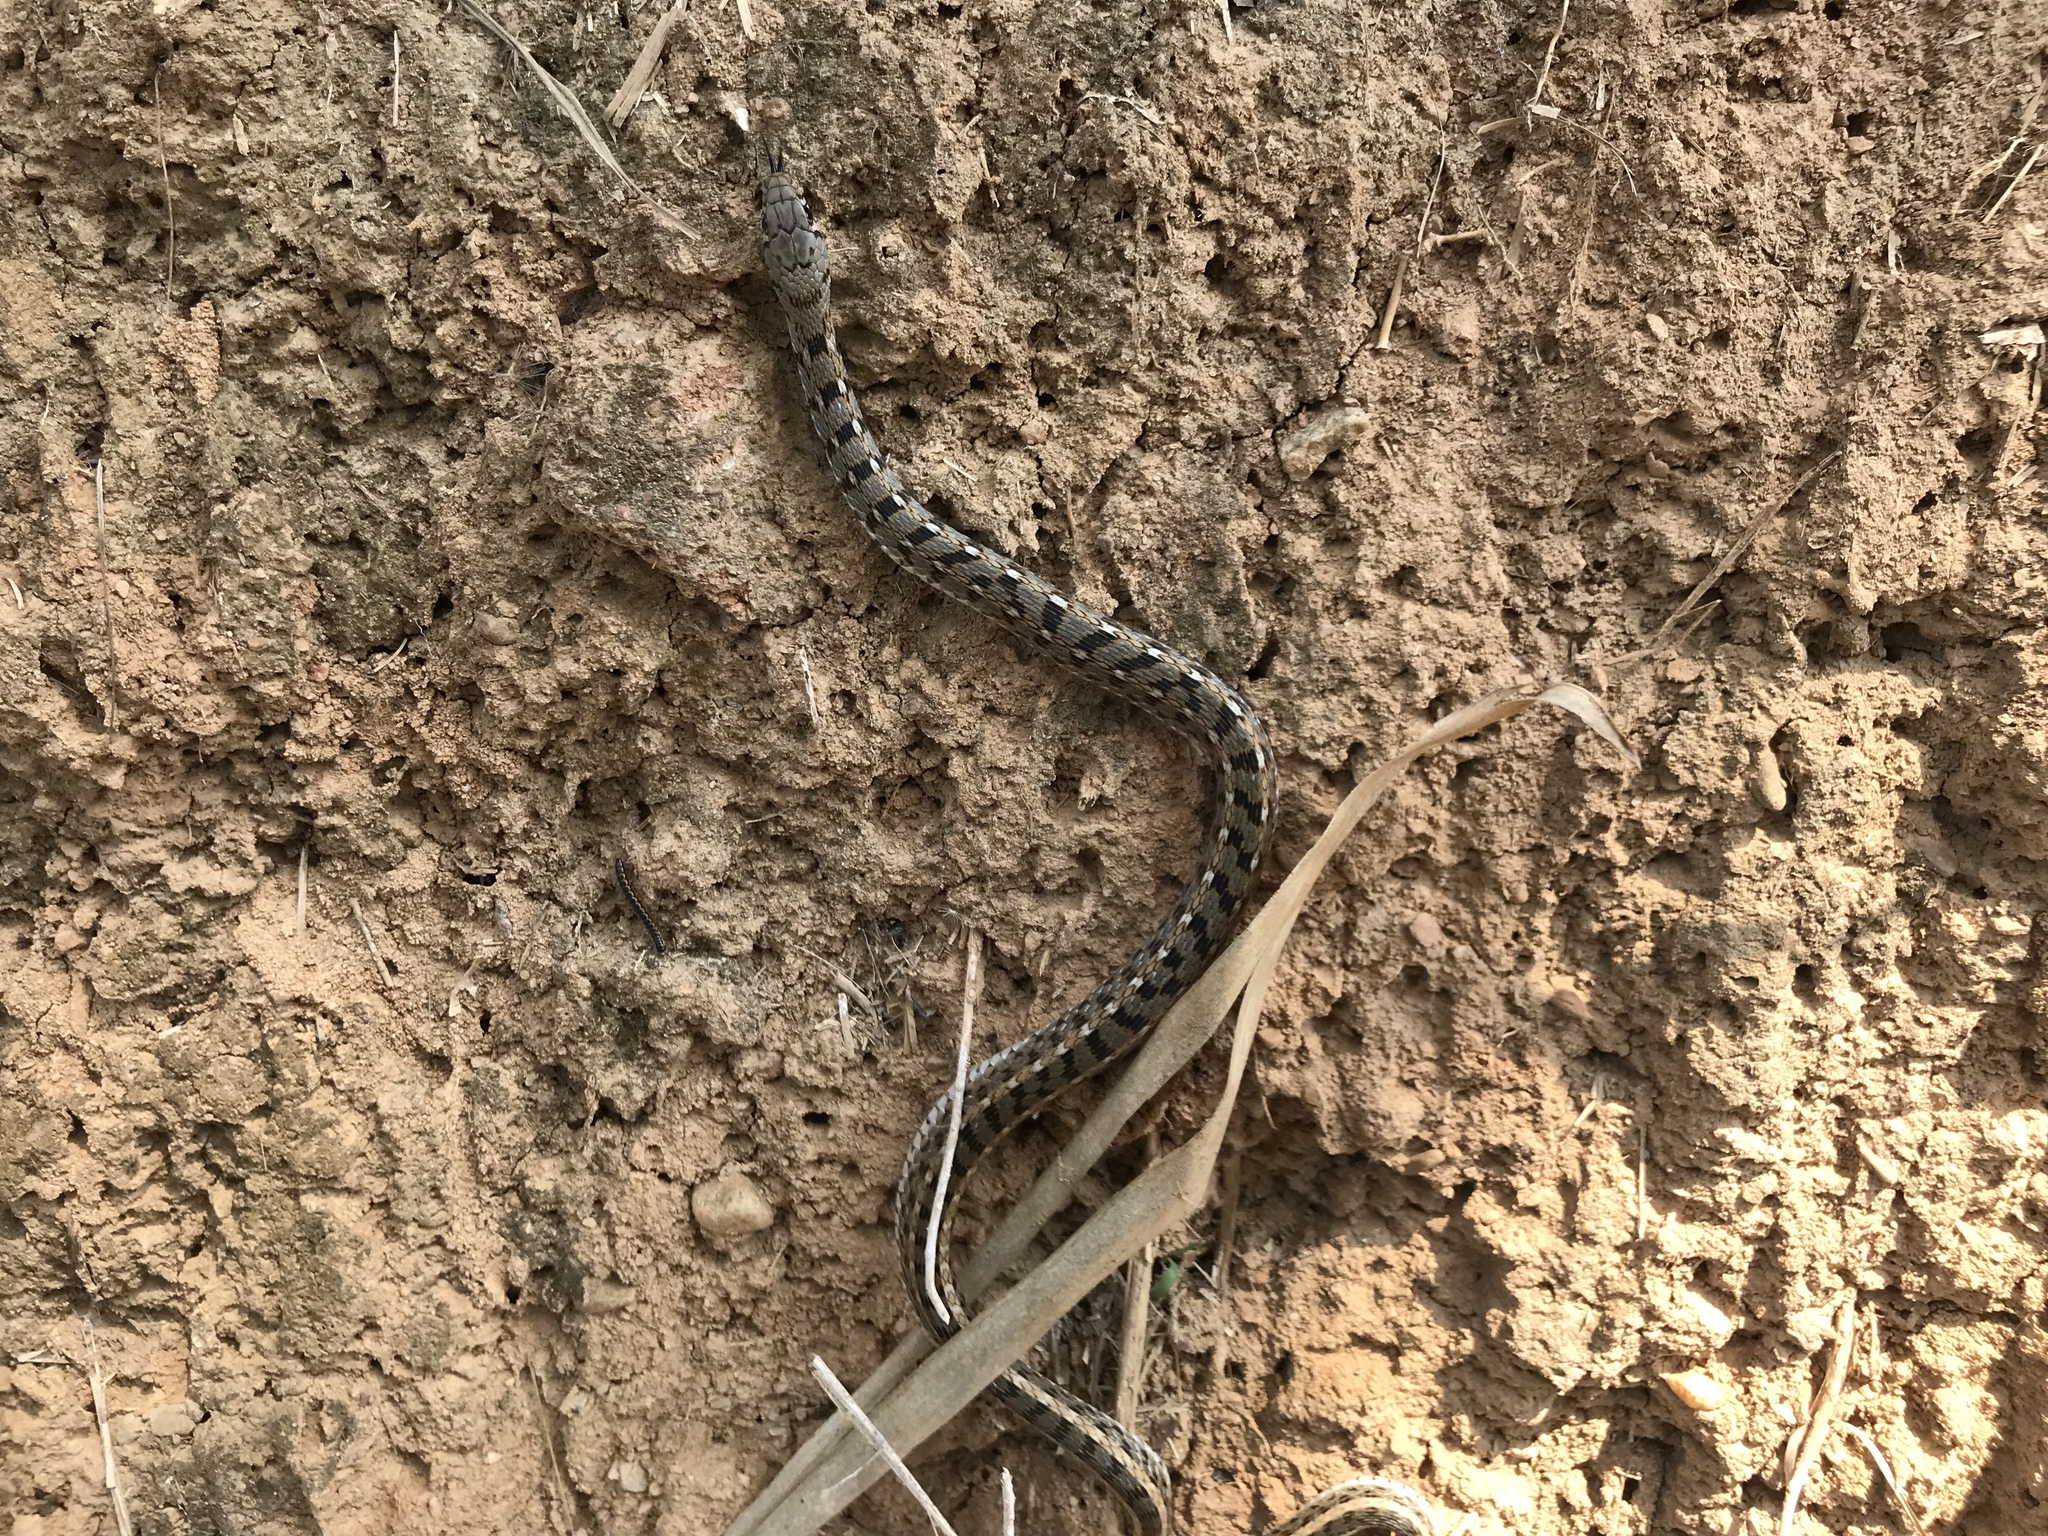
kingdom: Animalia
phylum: Chordata
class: Squamata
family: Colubridae
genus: Amphiesma
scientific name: Amphiesma stolatum
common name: Buff striped keelback
